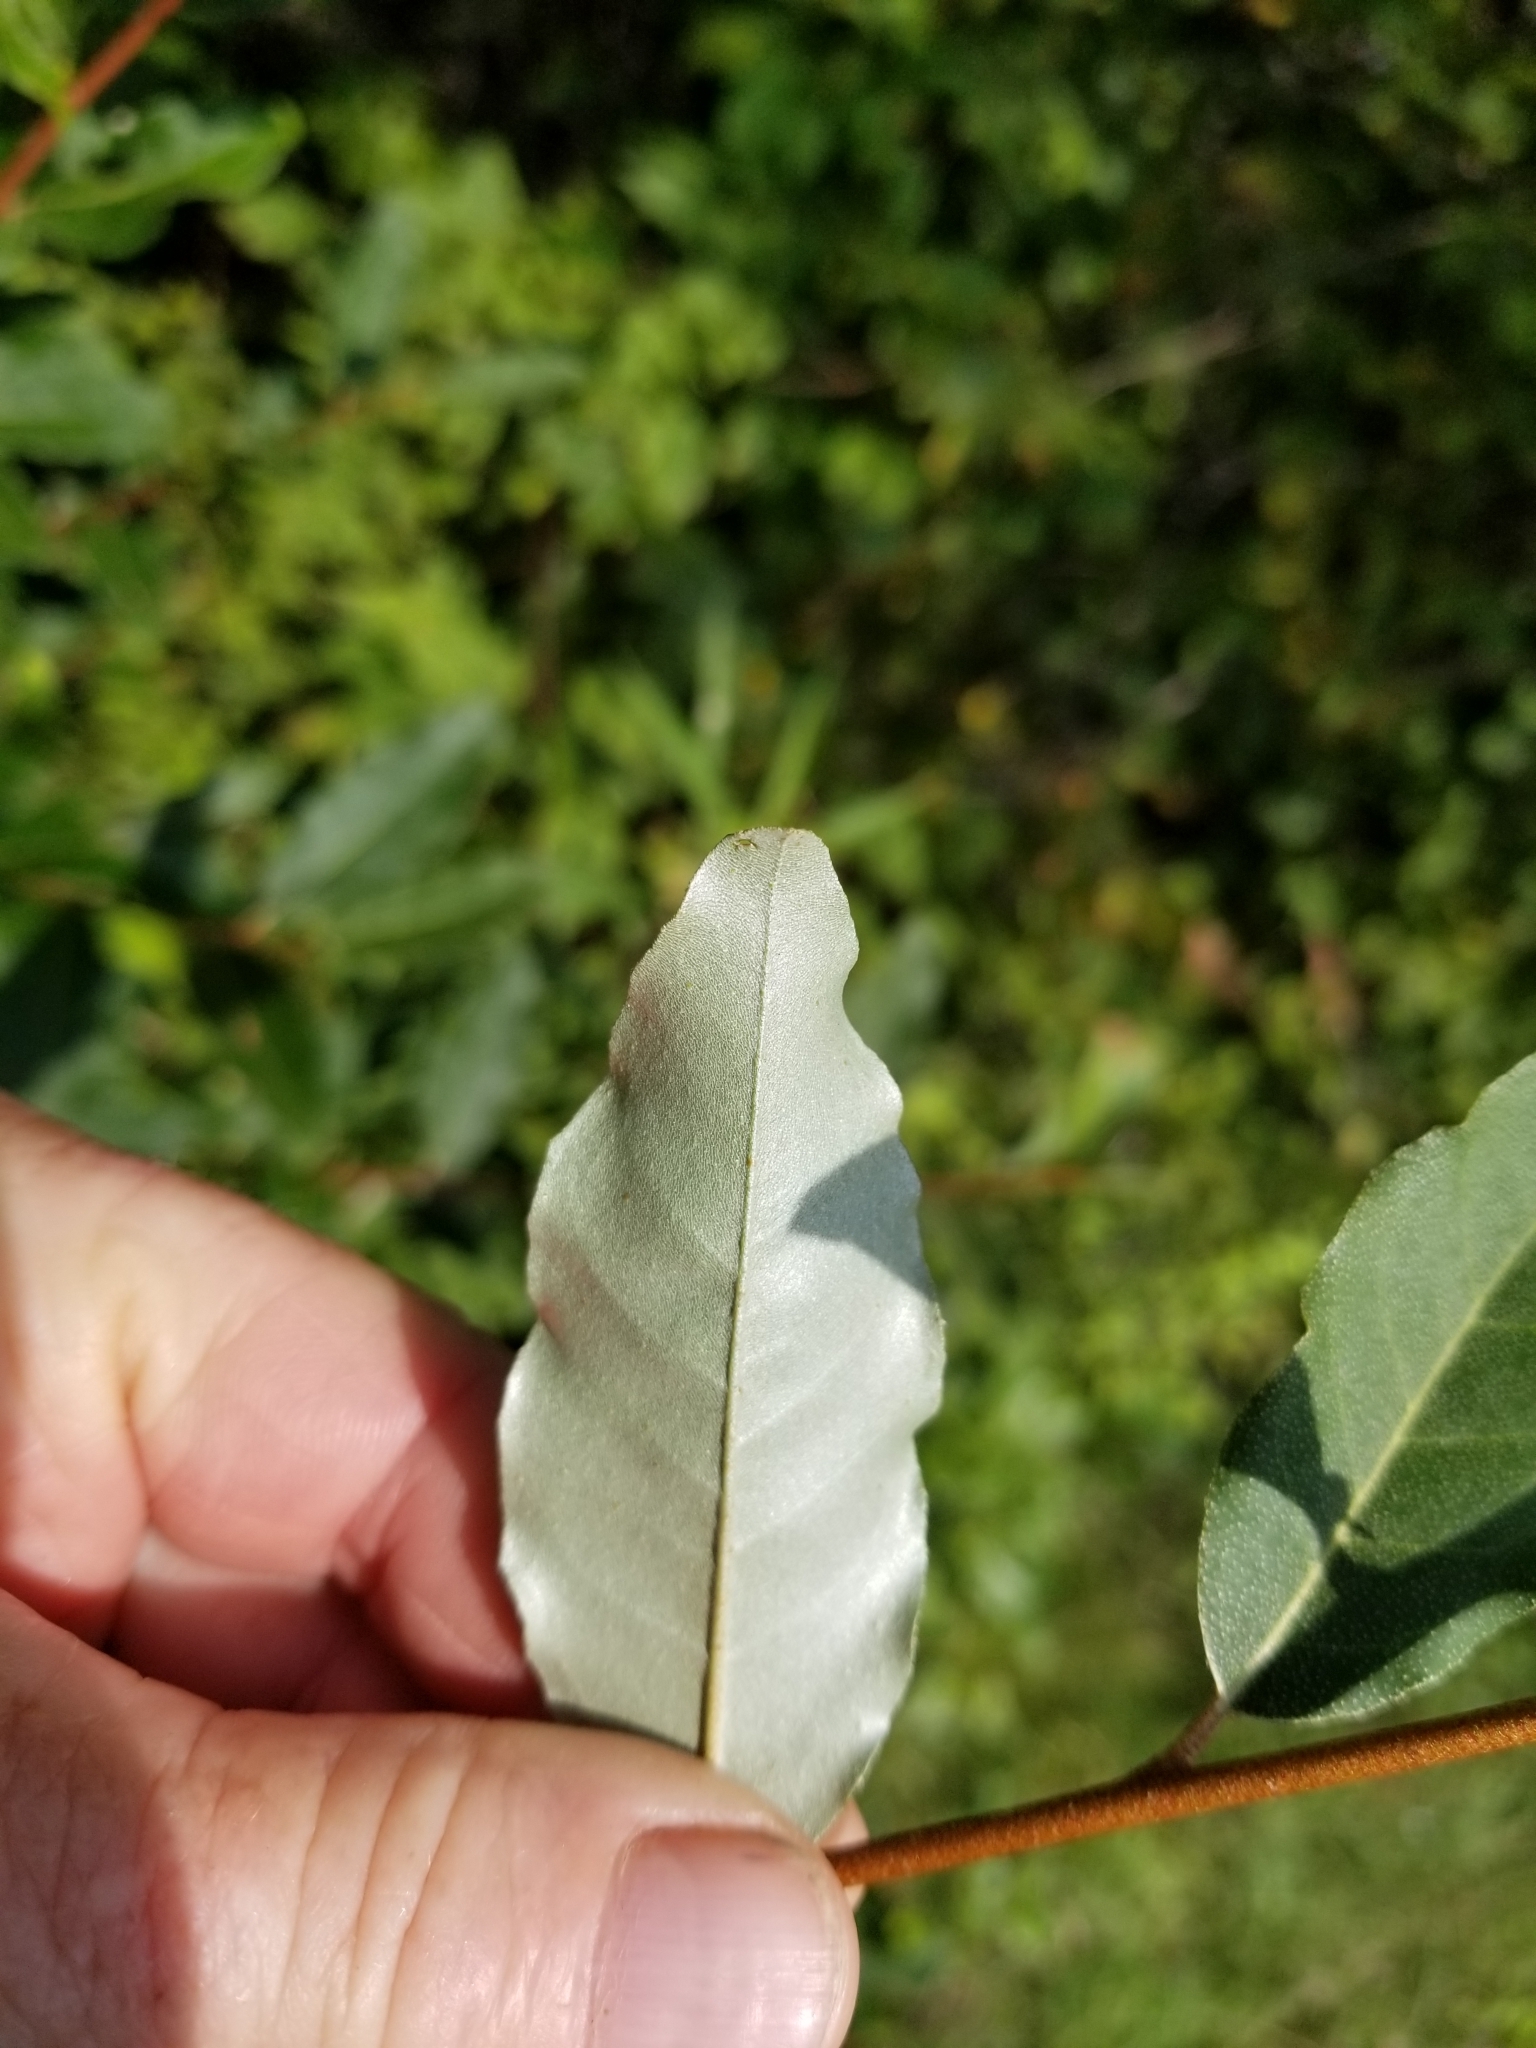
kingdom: Plantae
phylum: Tracheophyta
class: Magnoliopsida
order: Rosales
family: Elaeagnaceae
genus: Elaeagnus
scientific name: Elaeagnus umbellata
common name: Autumn olive
